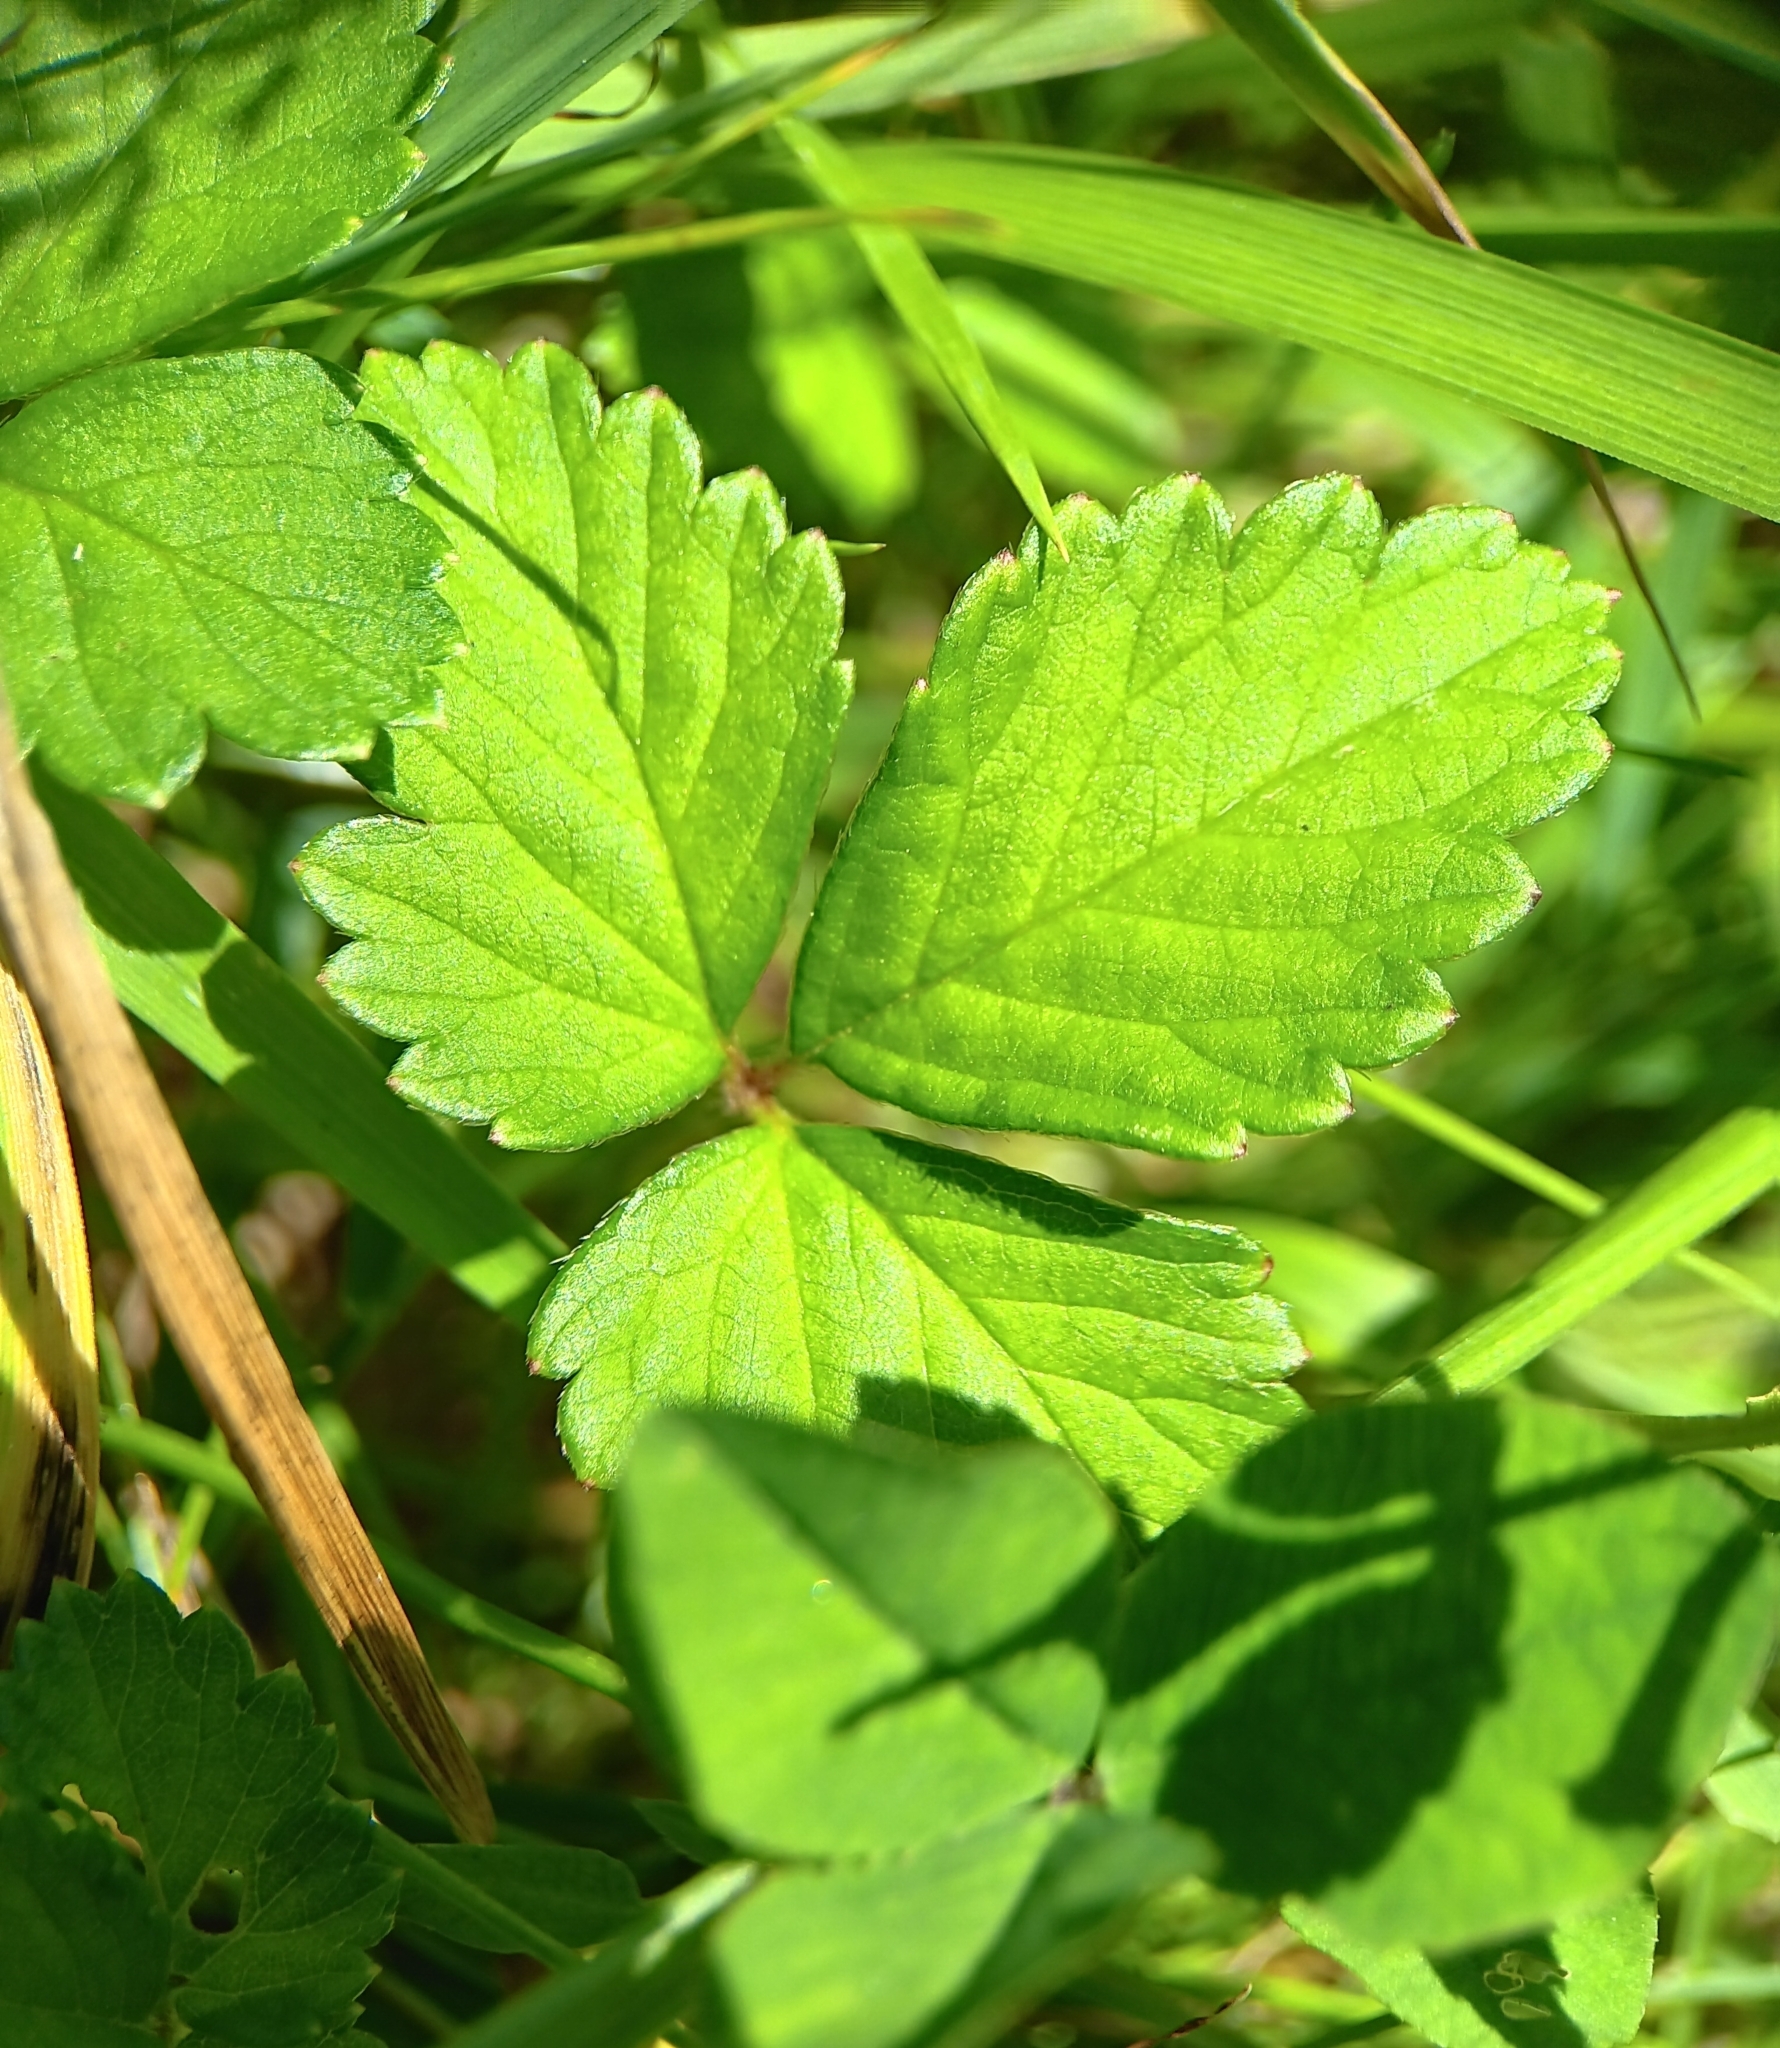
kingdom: Plantae
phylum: Tracheophyta
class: Magnoliopsida
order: Rosales
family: Rosaceae
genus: Potentilla
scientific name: Potentilla indica
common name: Yellow-flowered strawberry
